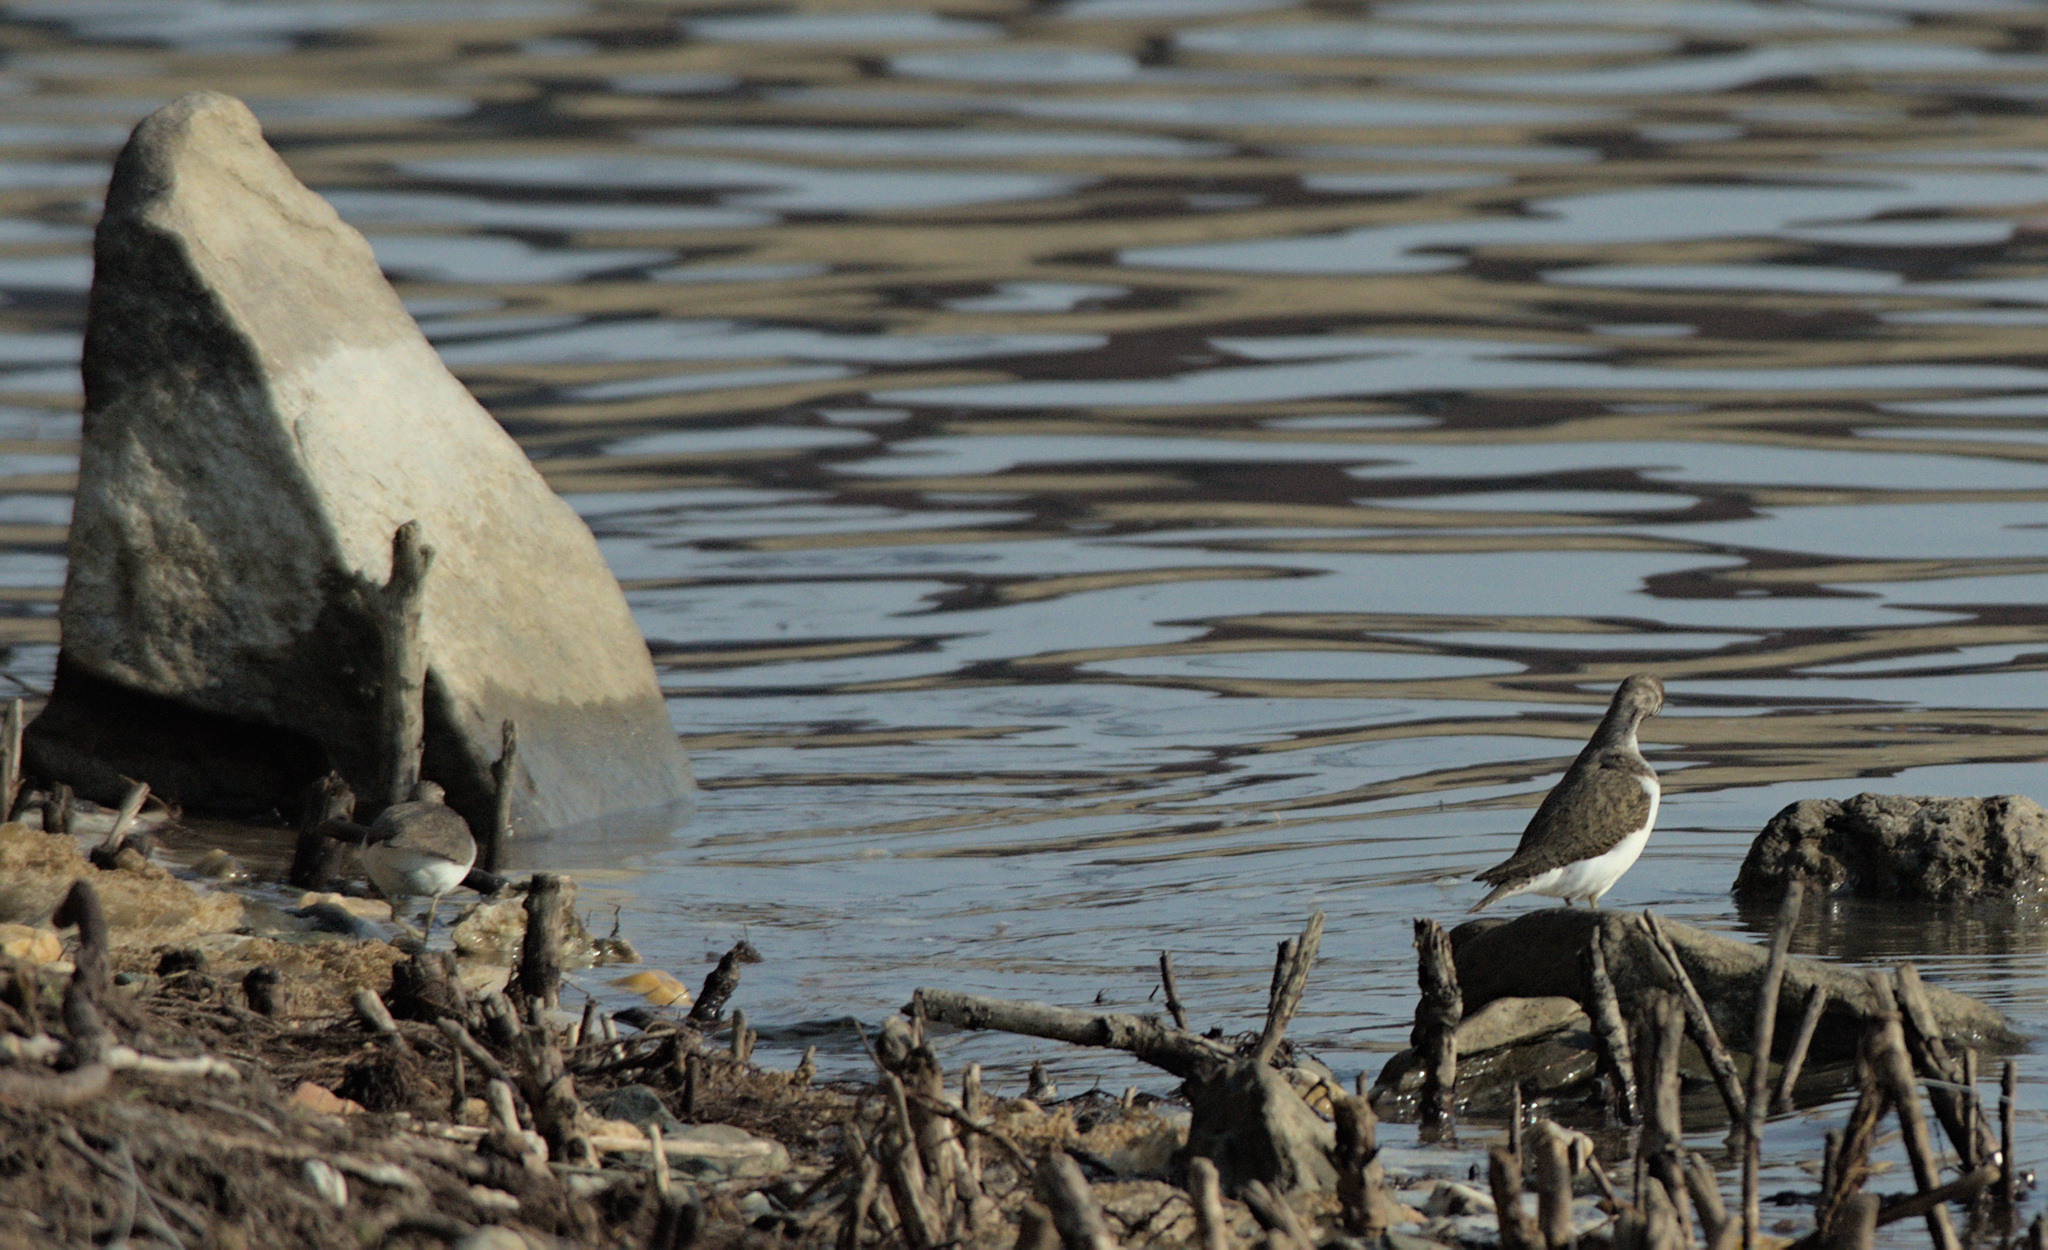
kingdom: Animalia
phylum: Chordata
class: Aves
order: Charadriiformes
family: Scolopacidae
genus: Actitis
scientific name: Actitis hypoleucos
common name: Common sandpiper
